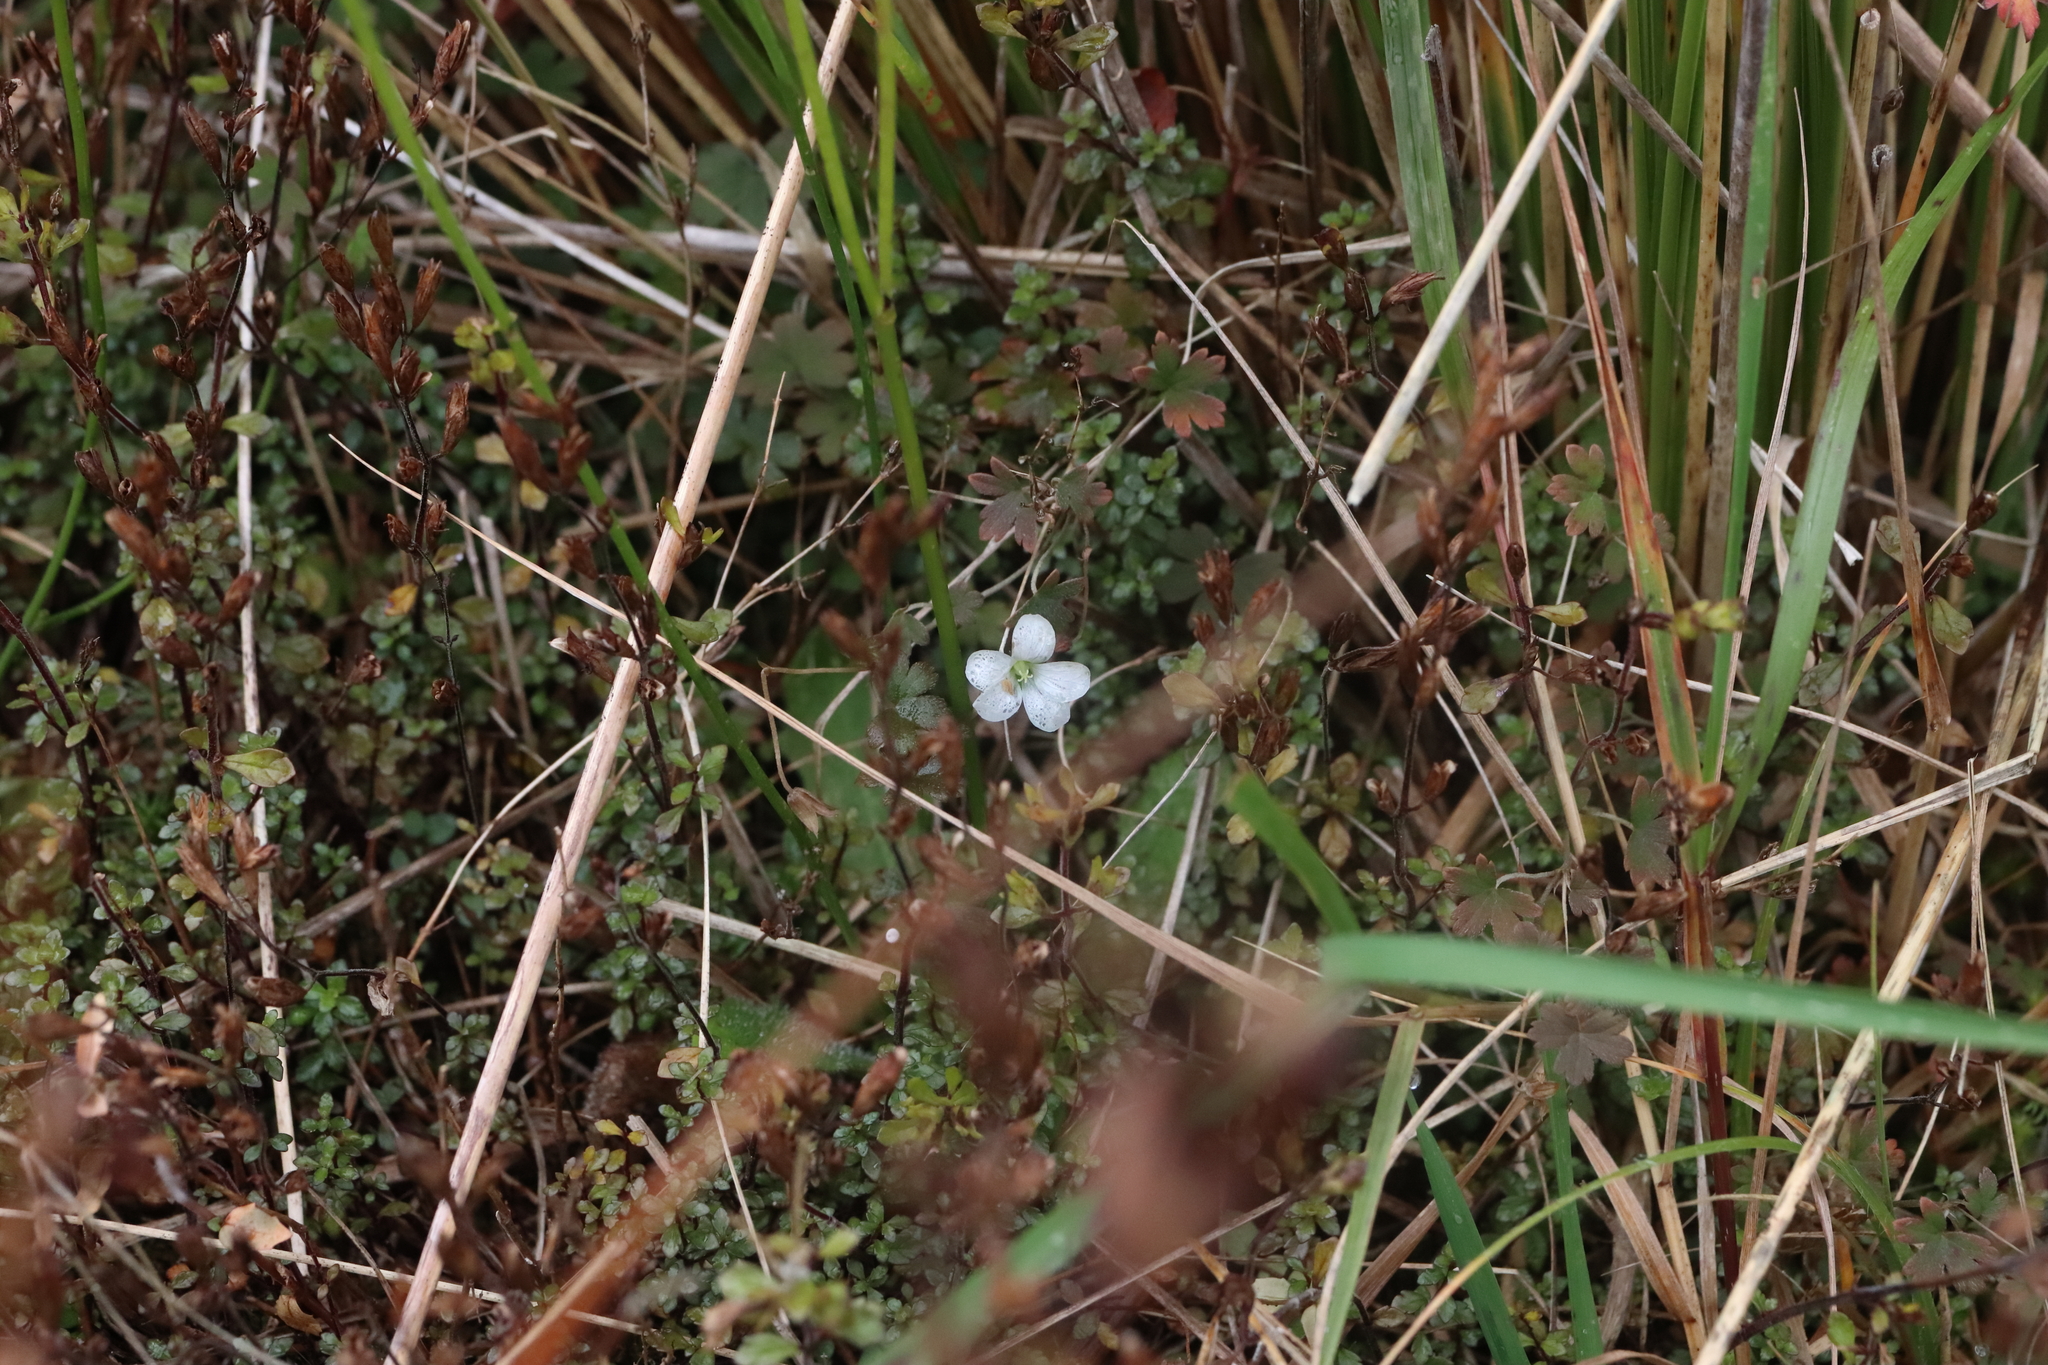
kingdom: Plantae
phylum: Tracheophyta
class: Magnoliopsida
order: Geraniales
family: Geraniaceae
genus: Geranium
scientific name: Geranium
